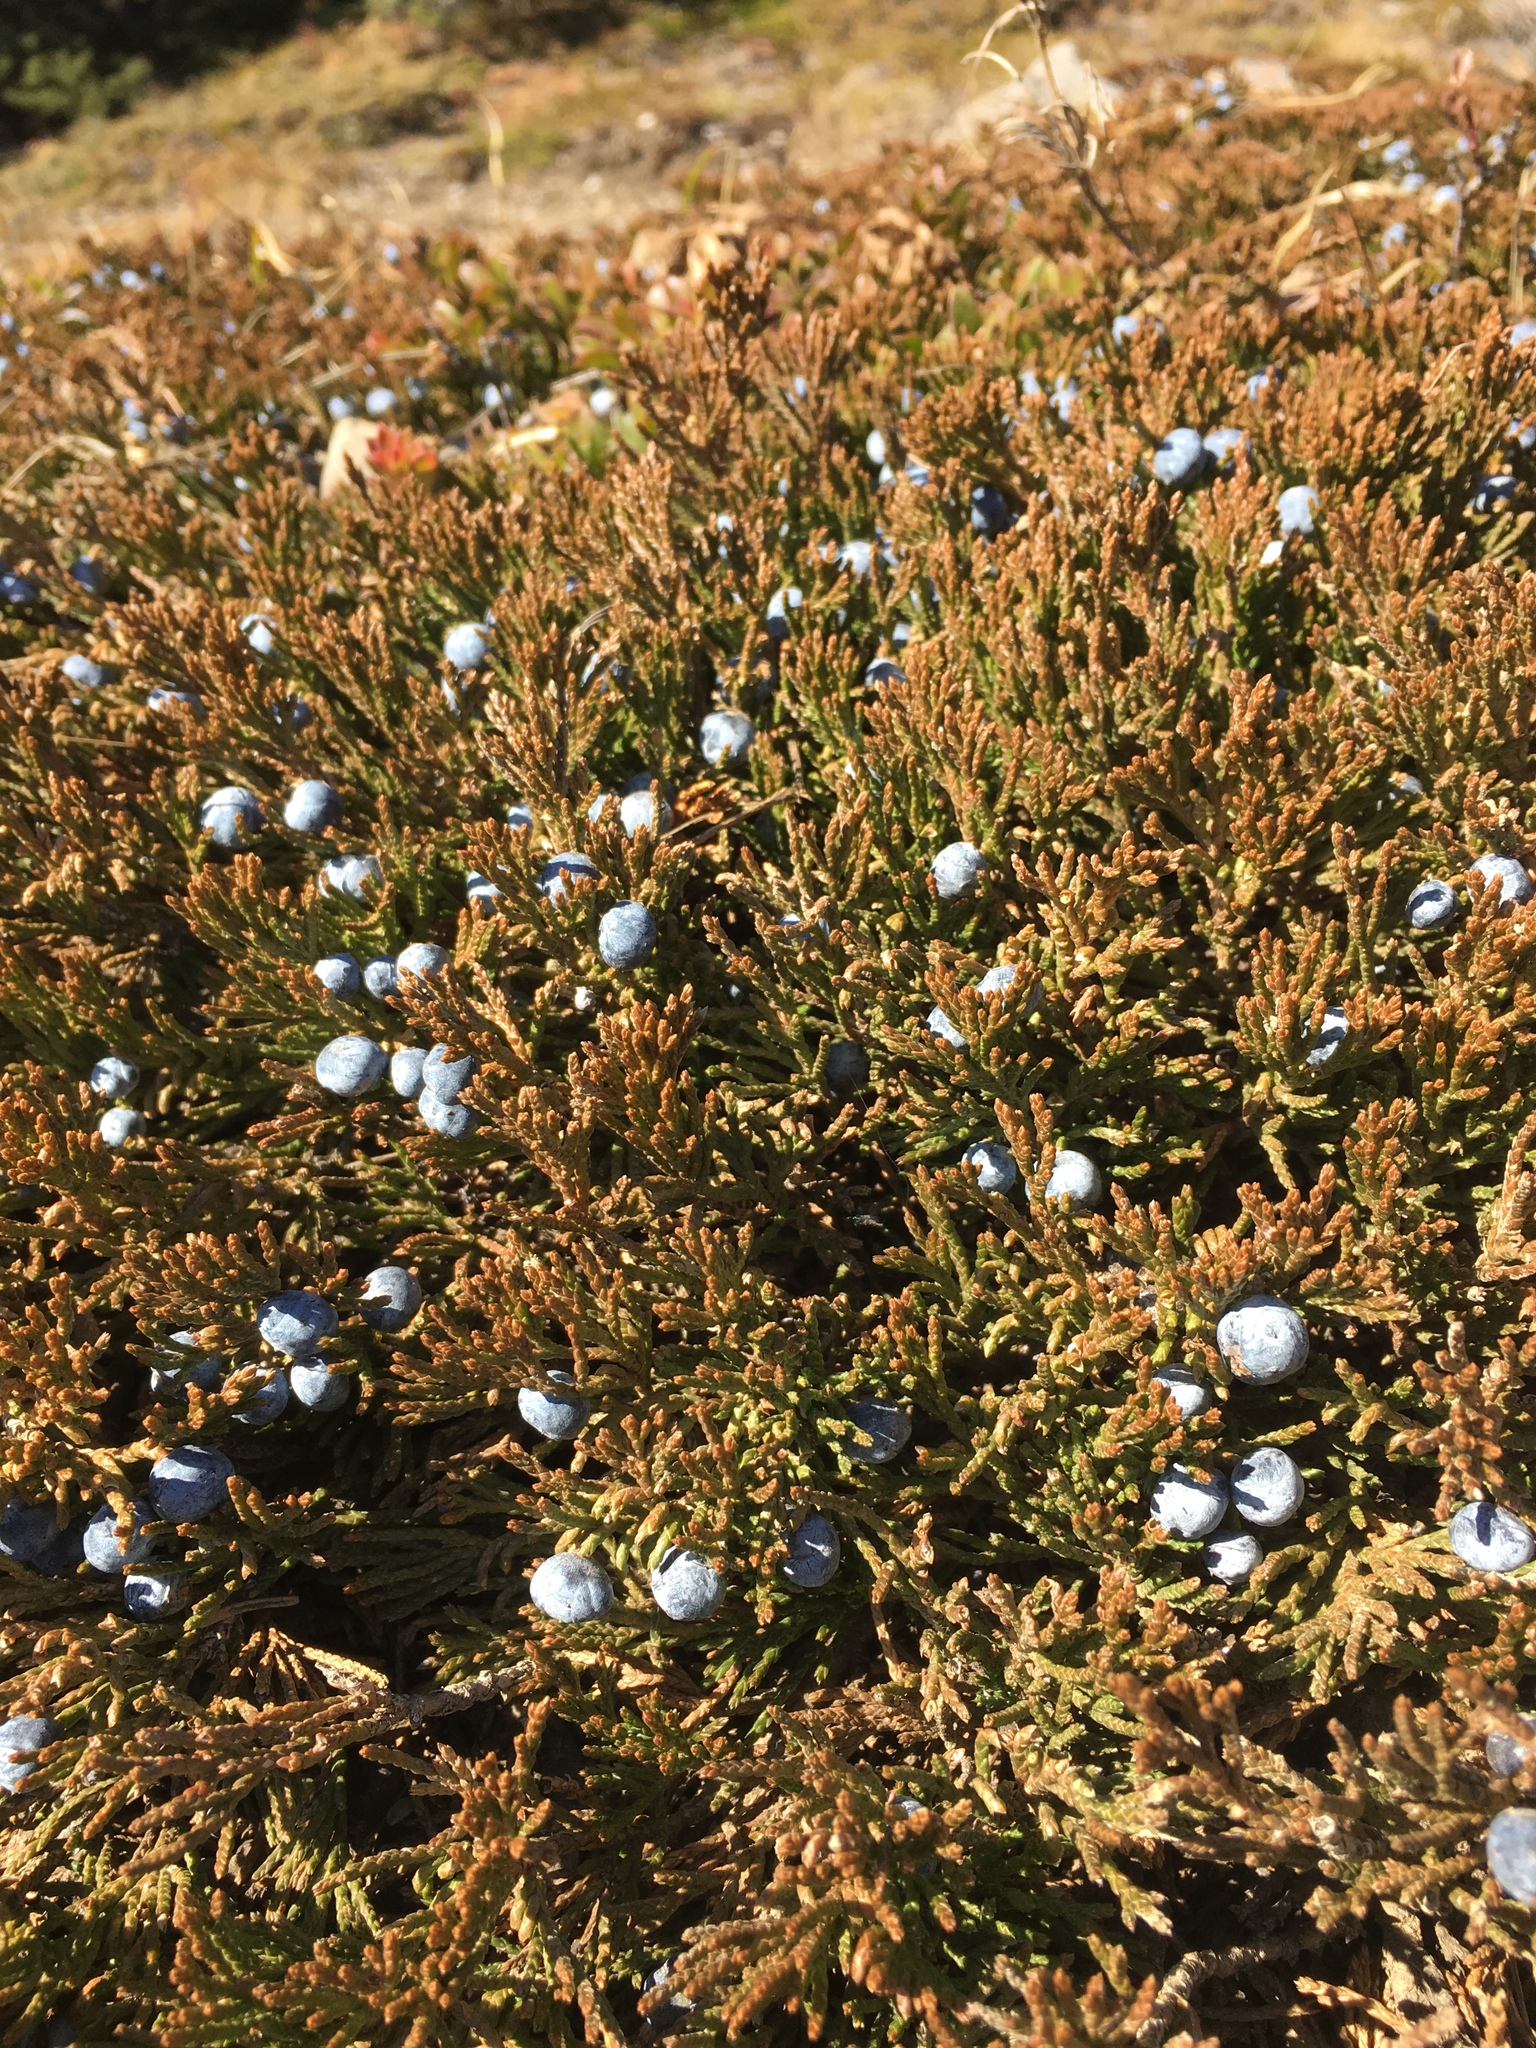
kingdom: Plantae
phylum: Tracheophyta
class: Pinopsida
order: Pinales
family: Cupressaceae
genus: Juniperus
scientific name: Juniperus horizontalis
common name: Creeping juniper
